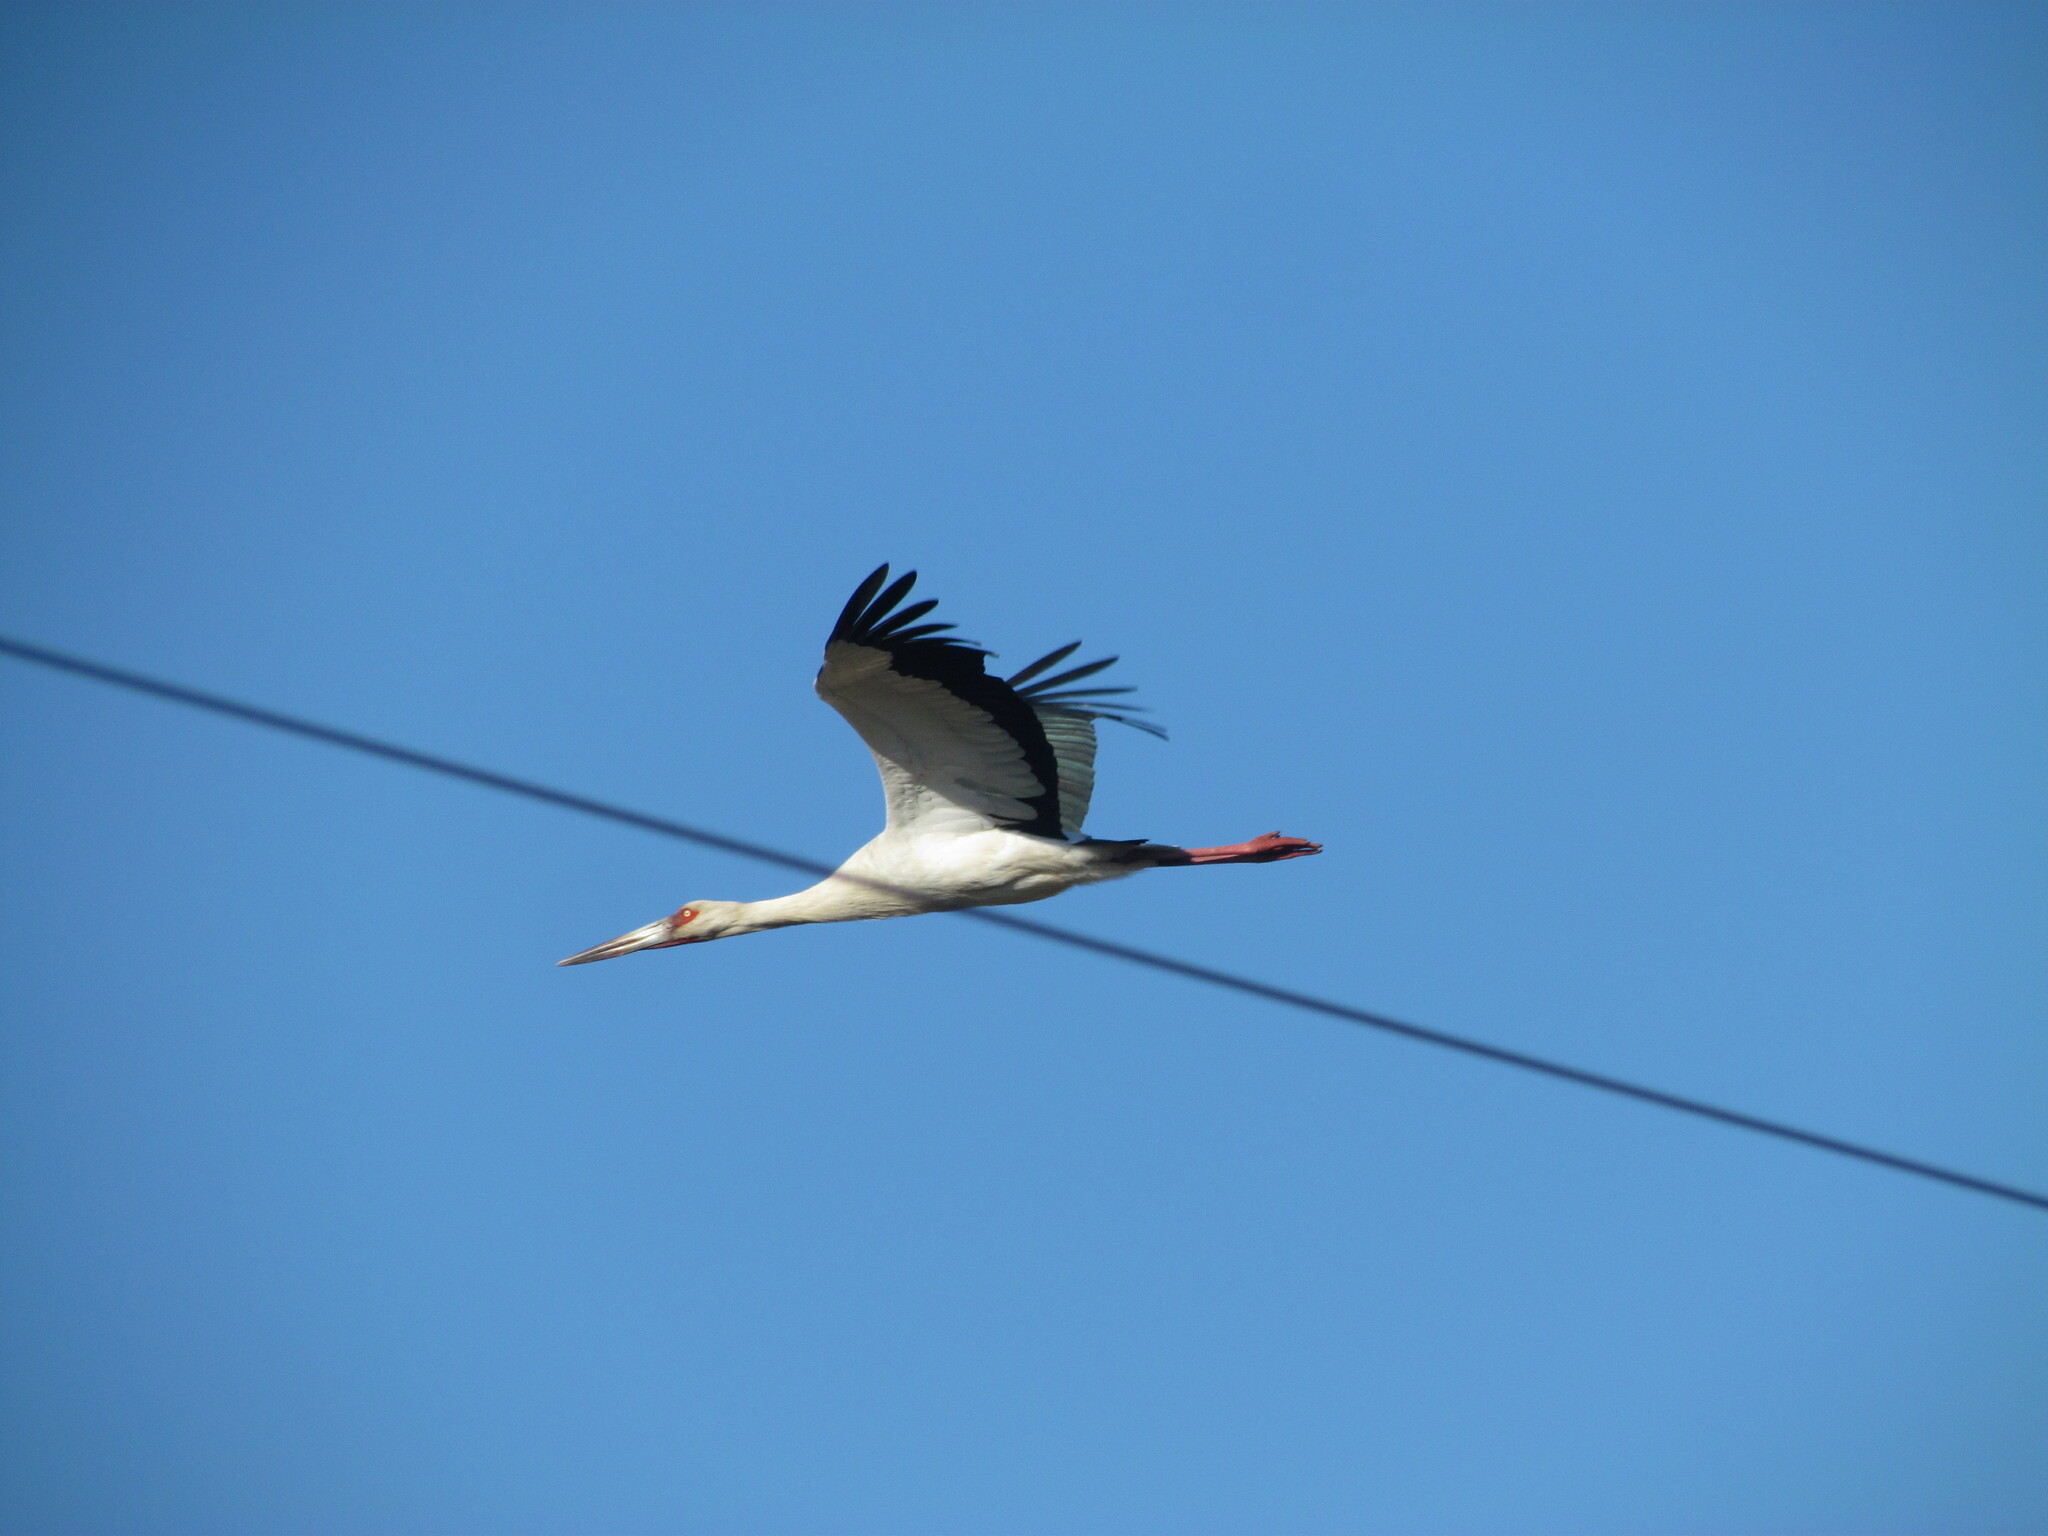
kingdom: Animalia
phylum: Chordata
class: Aves
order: Ciconiiformes
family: Ciconiidae
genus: Ciconia
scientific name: Ciconia maguari
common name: Maguari stork
